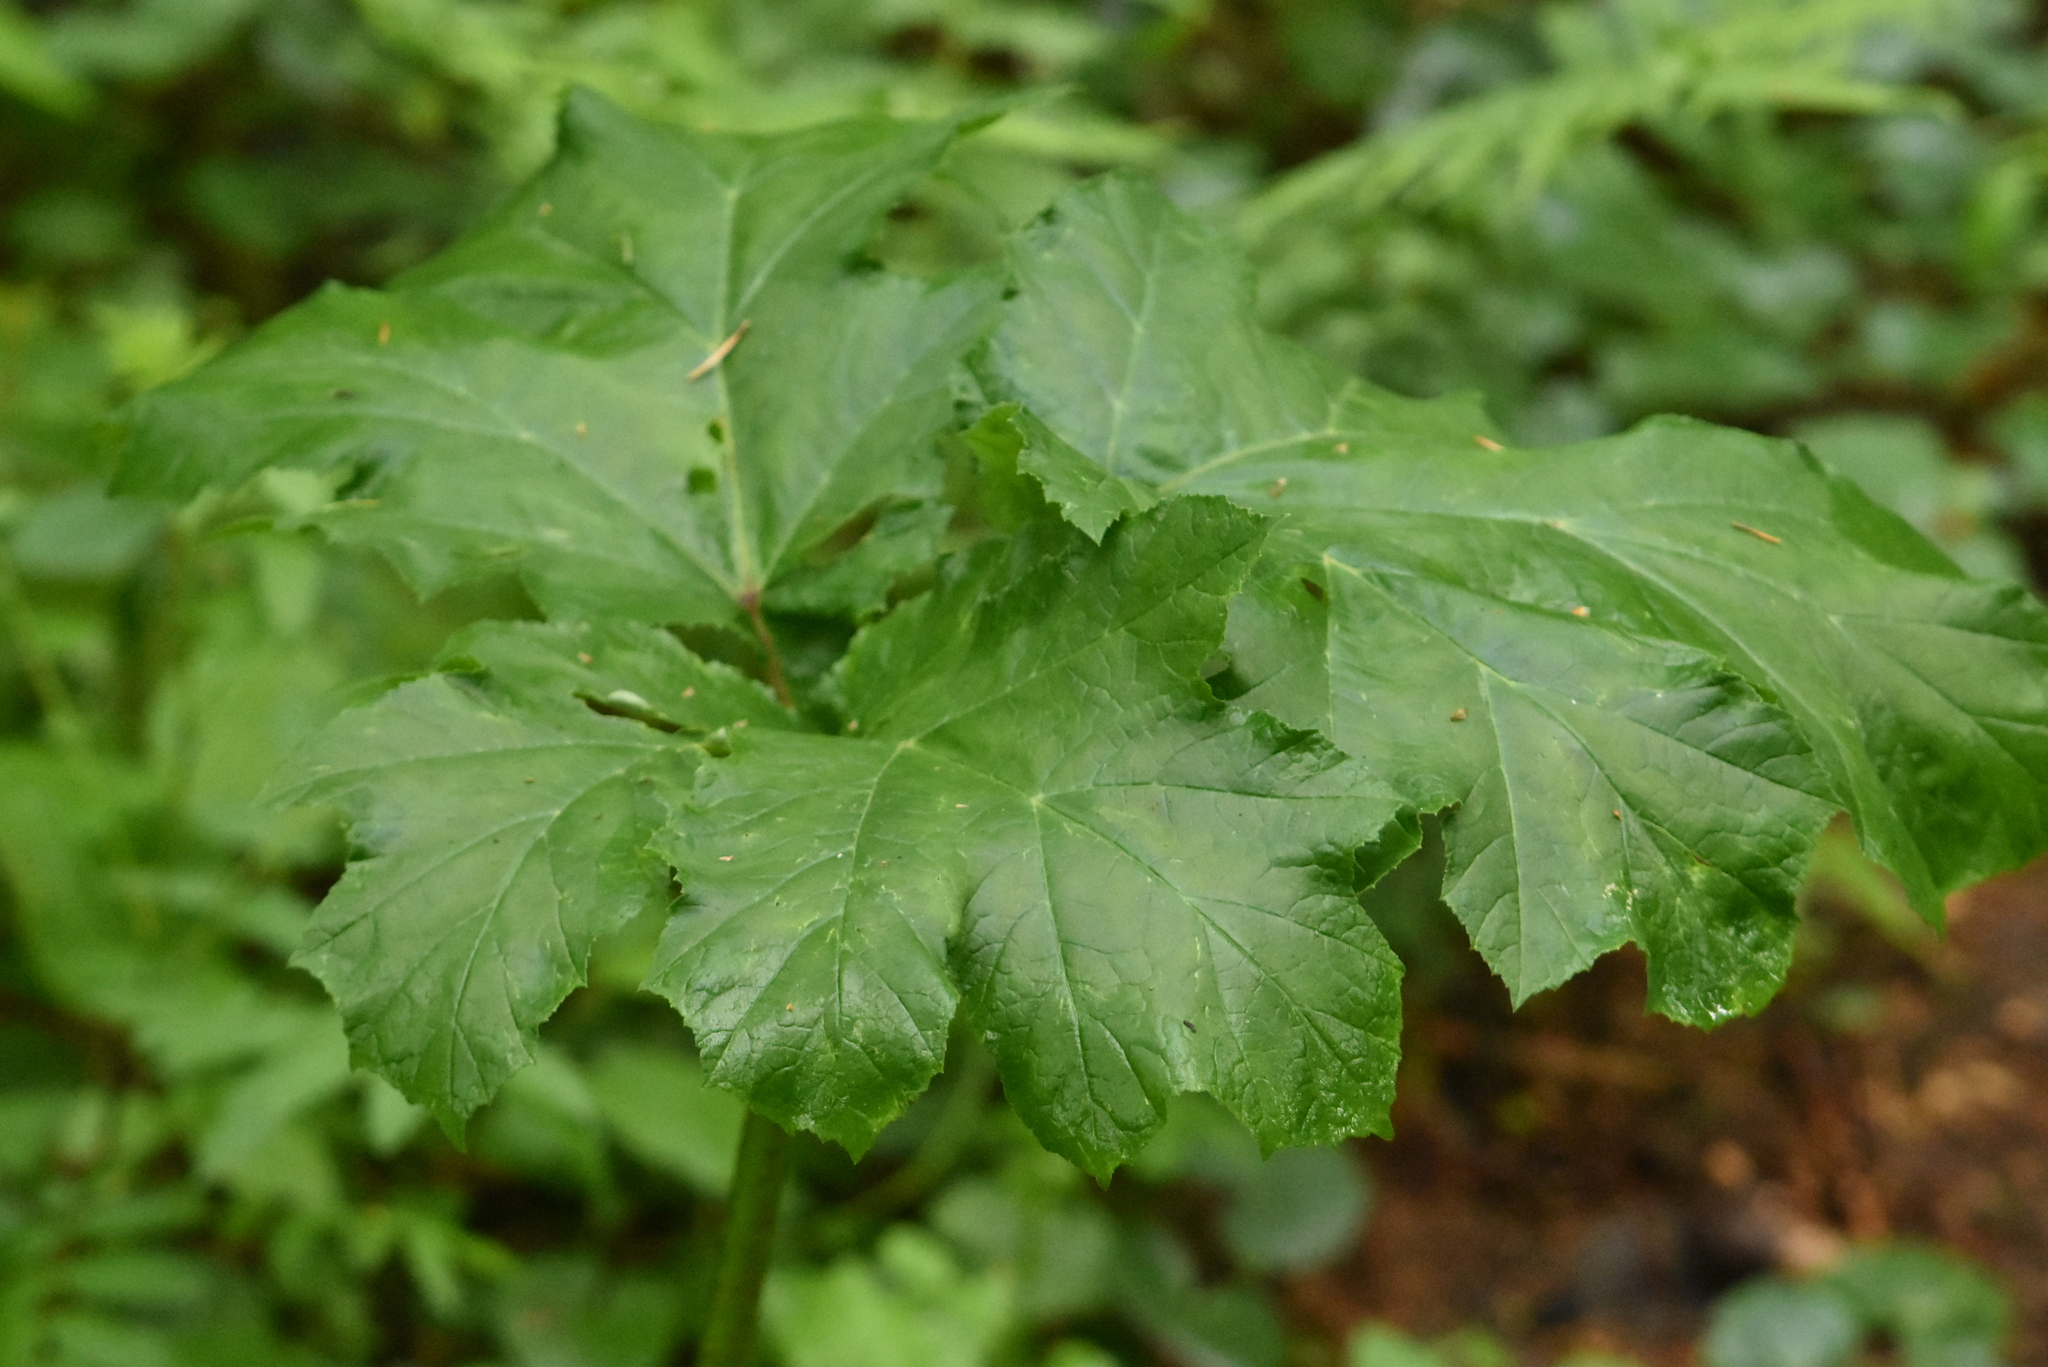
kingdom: Plantae
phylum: Tracheophyta
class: Magnoliopsida
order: Apiales
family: Apiaceae
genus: Heracleum
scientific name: Heracleum sosnowskyi
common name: Sosnowsky's hogweed
